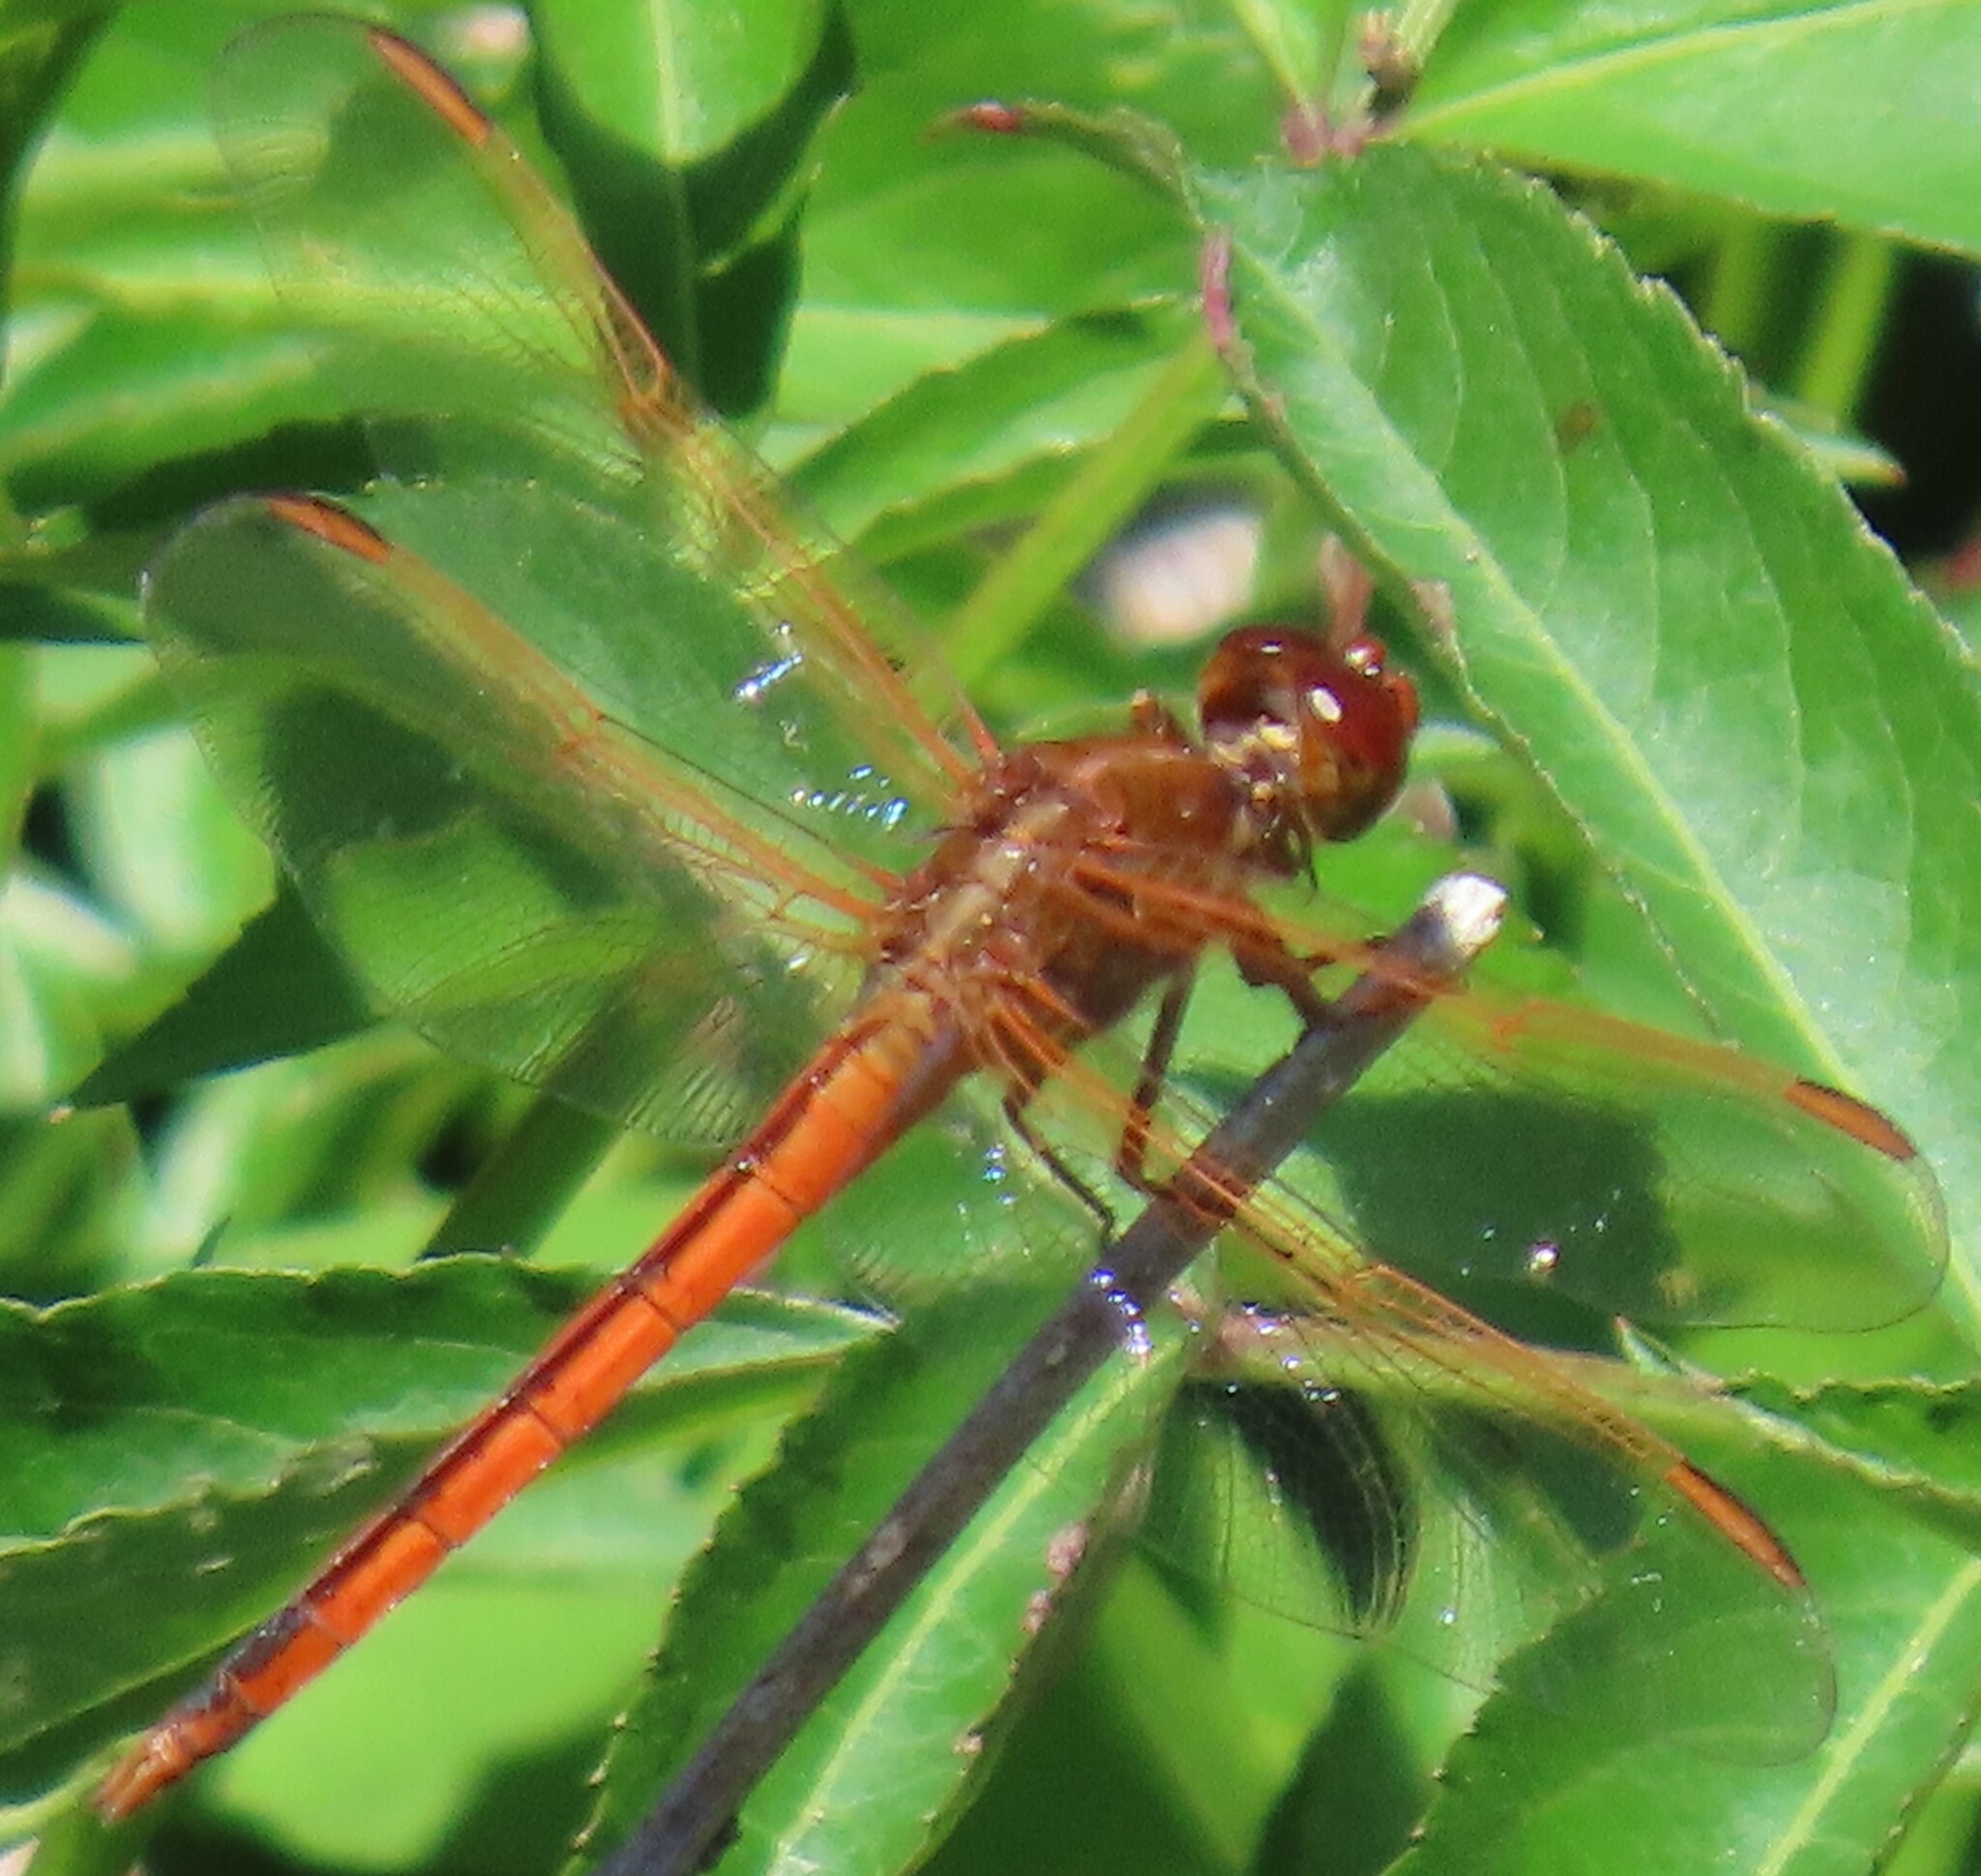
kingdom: Animalia
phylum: Arthropoda
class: Insecta
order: Odonata
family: Libellulidae
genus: Libellula
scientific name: Libellula needhami
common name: Needham's skimmer
